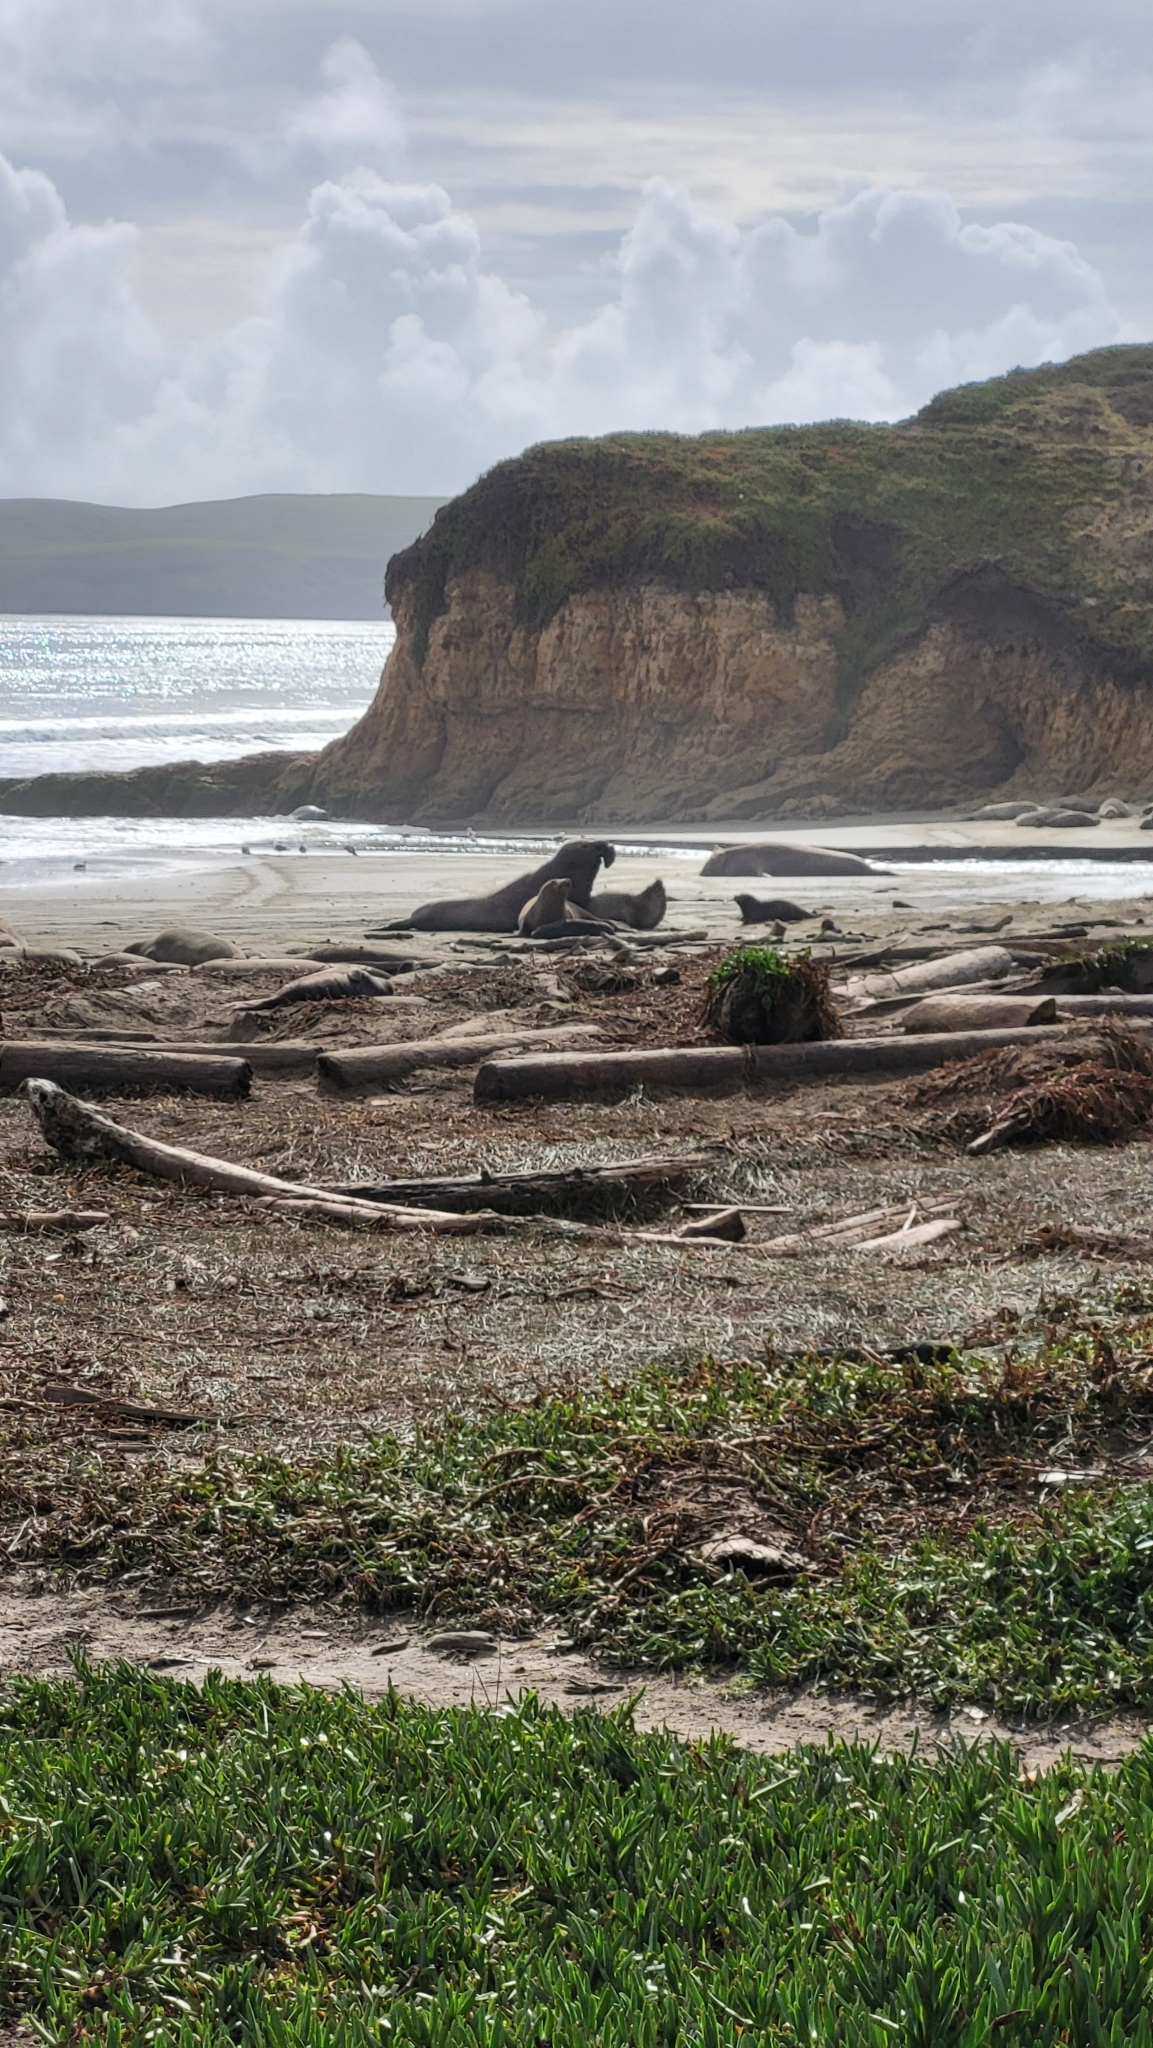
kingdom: Animalia
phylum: Chordata
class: Mammalia
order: Carnivora
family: Phocidae
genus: Mirounga
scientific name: Mirounga angustirostris
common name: Northern elephant seal
